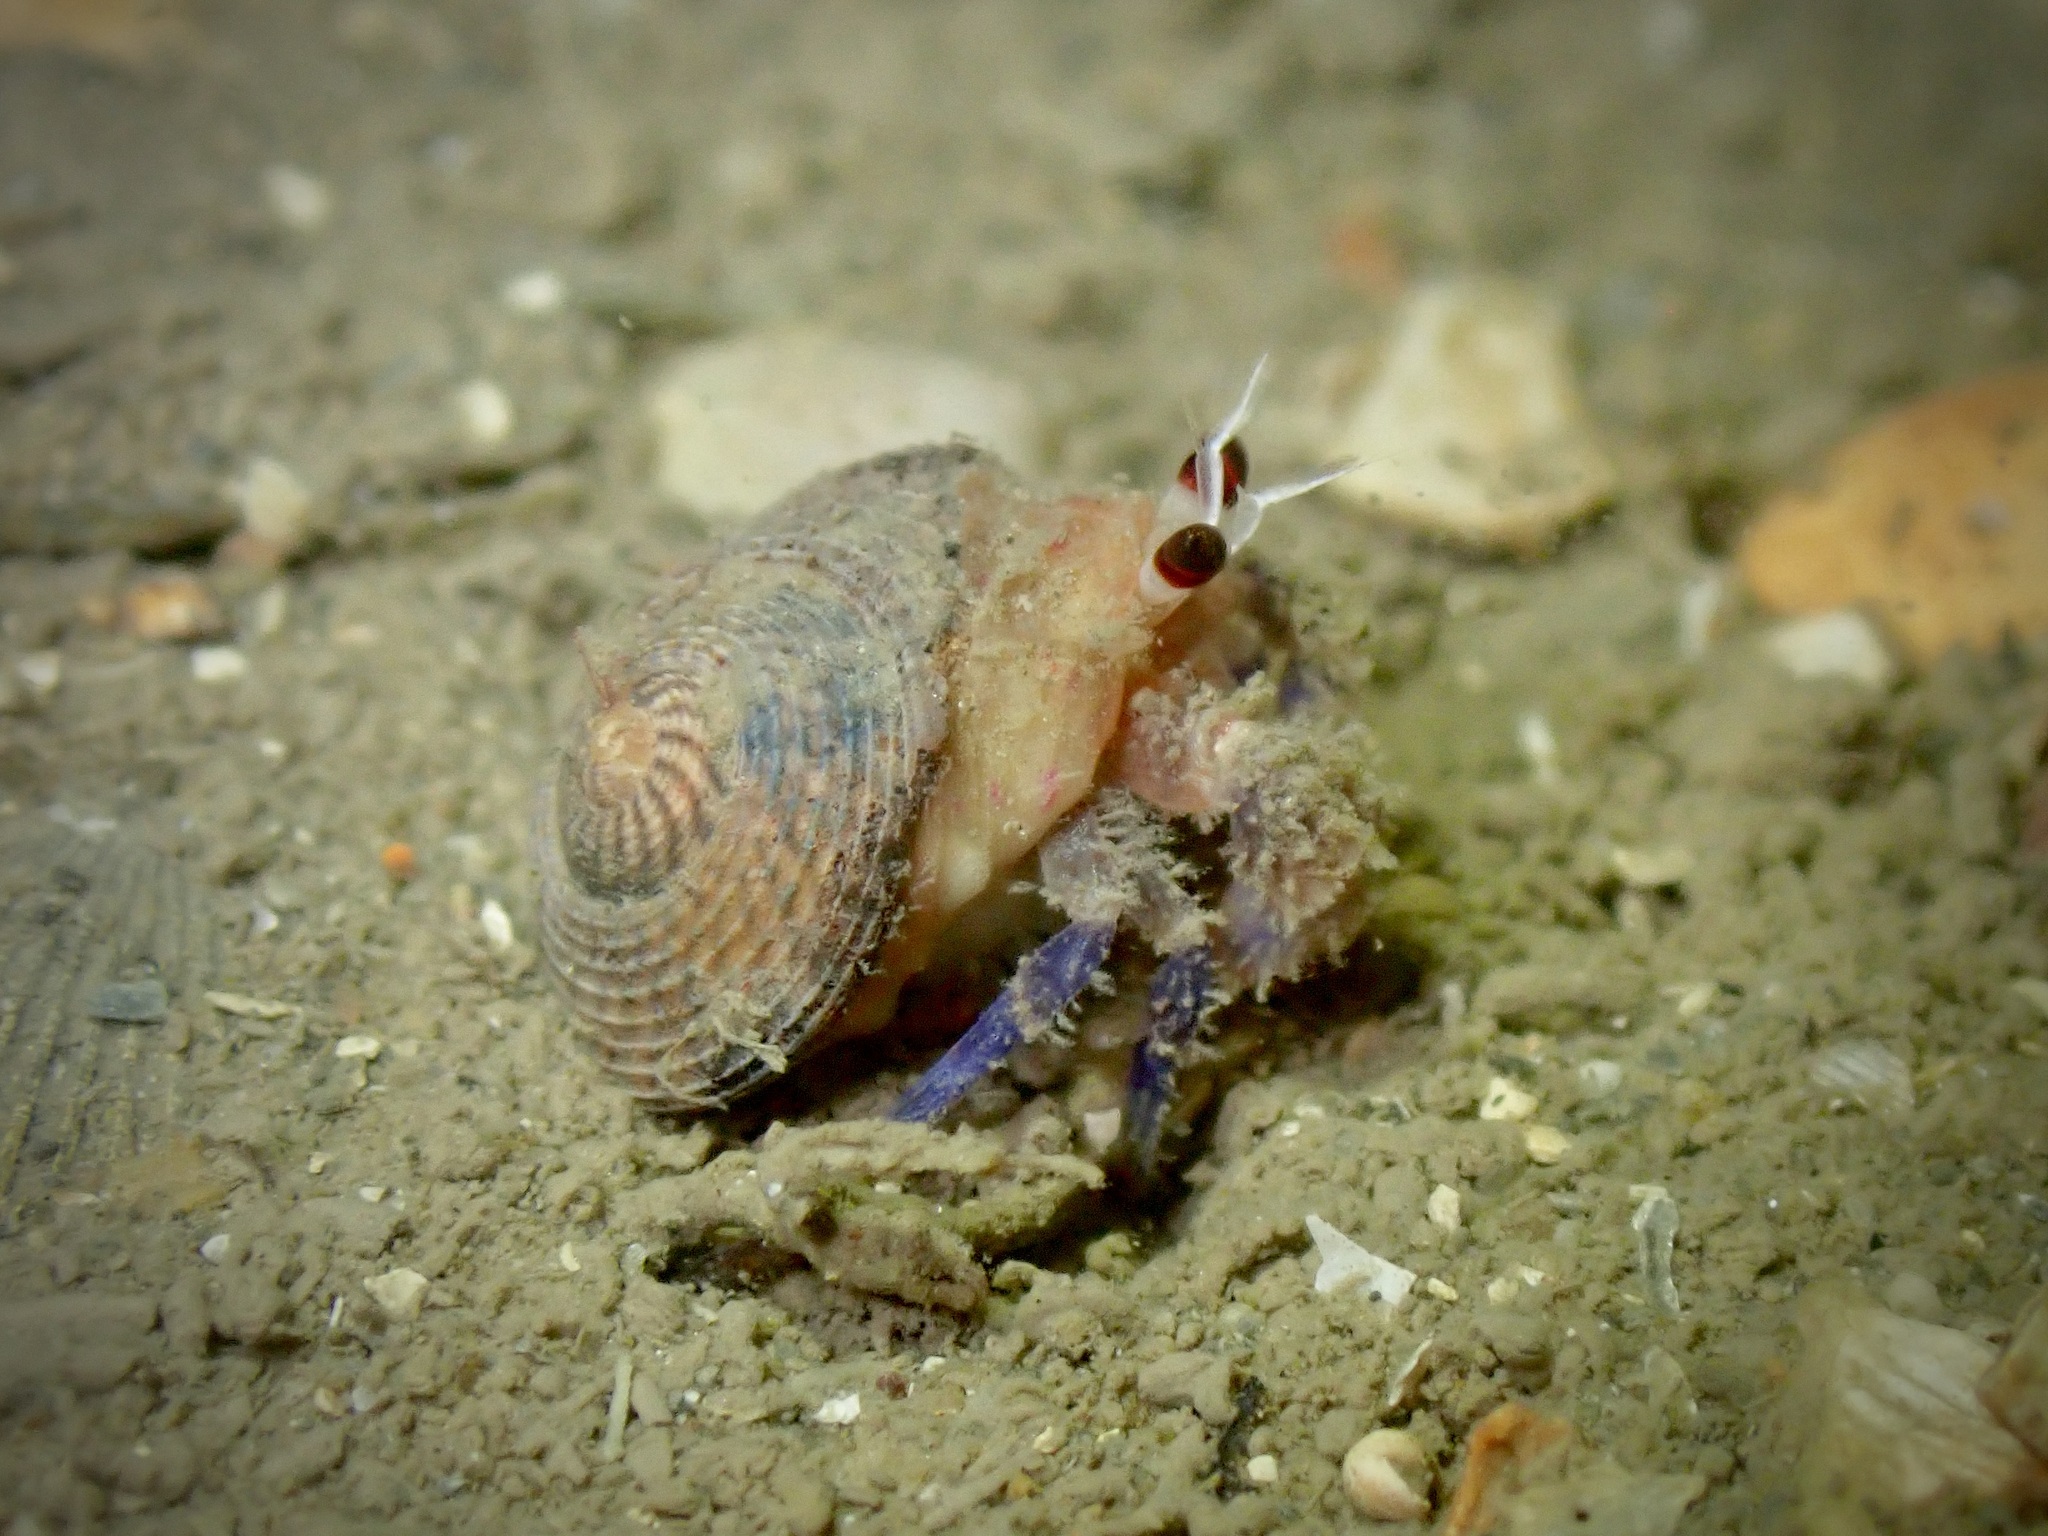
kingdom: Animalia
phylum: Arthropoda
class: Malacostraca
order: Decapoda
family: Paguridae
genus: Pagurus
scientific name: Pagurus prideaux
